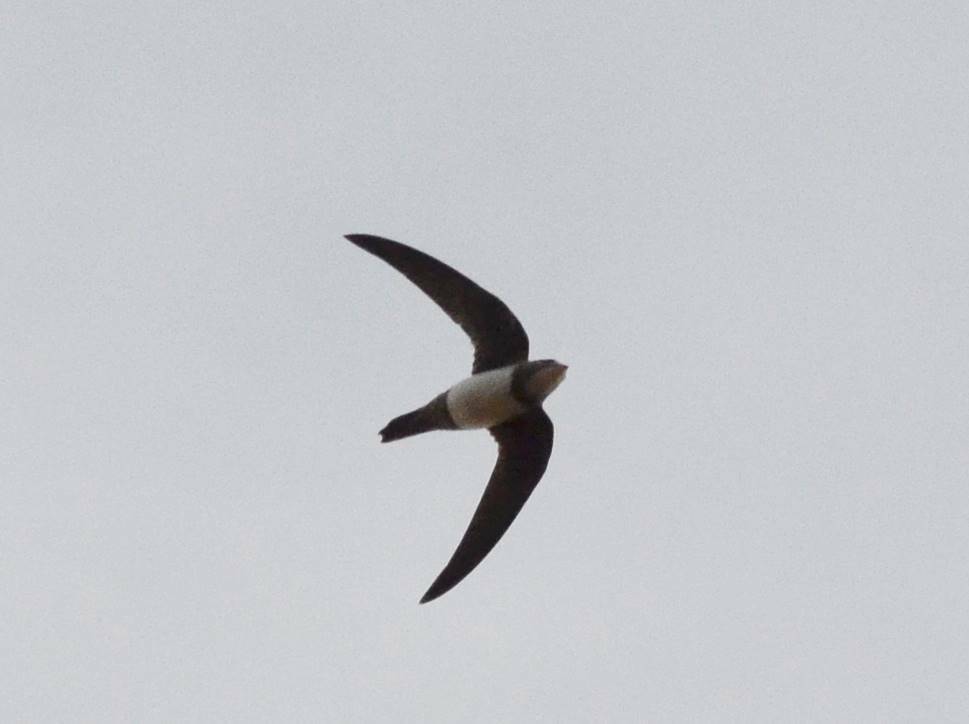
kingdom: Animalia
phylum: Chordata
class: Aves
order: Apodiformes
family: Apodidae
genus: Tachymarptis
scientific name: Tachymarptis melba
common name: Alpine swift
